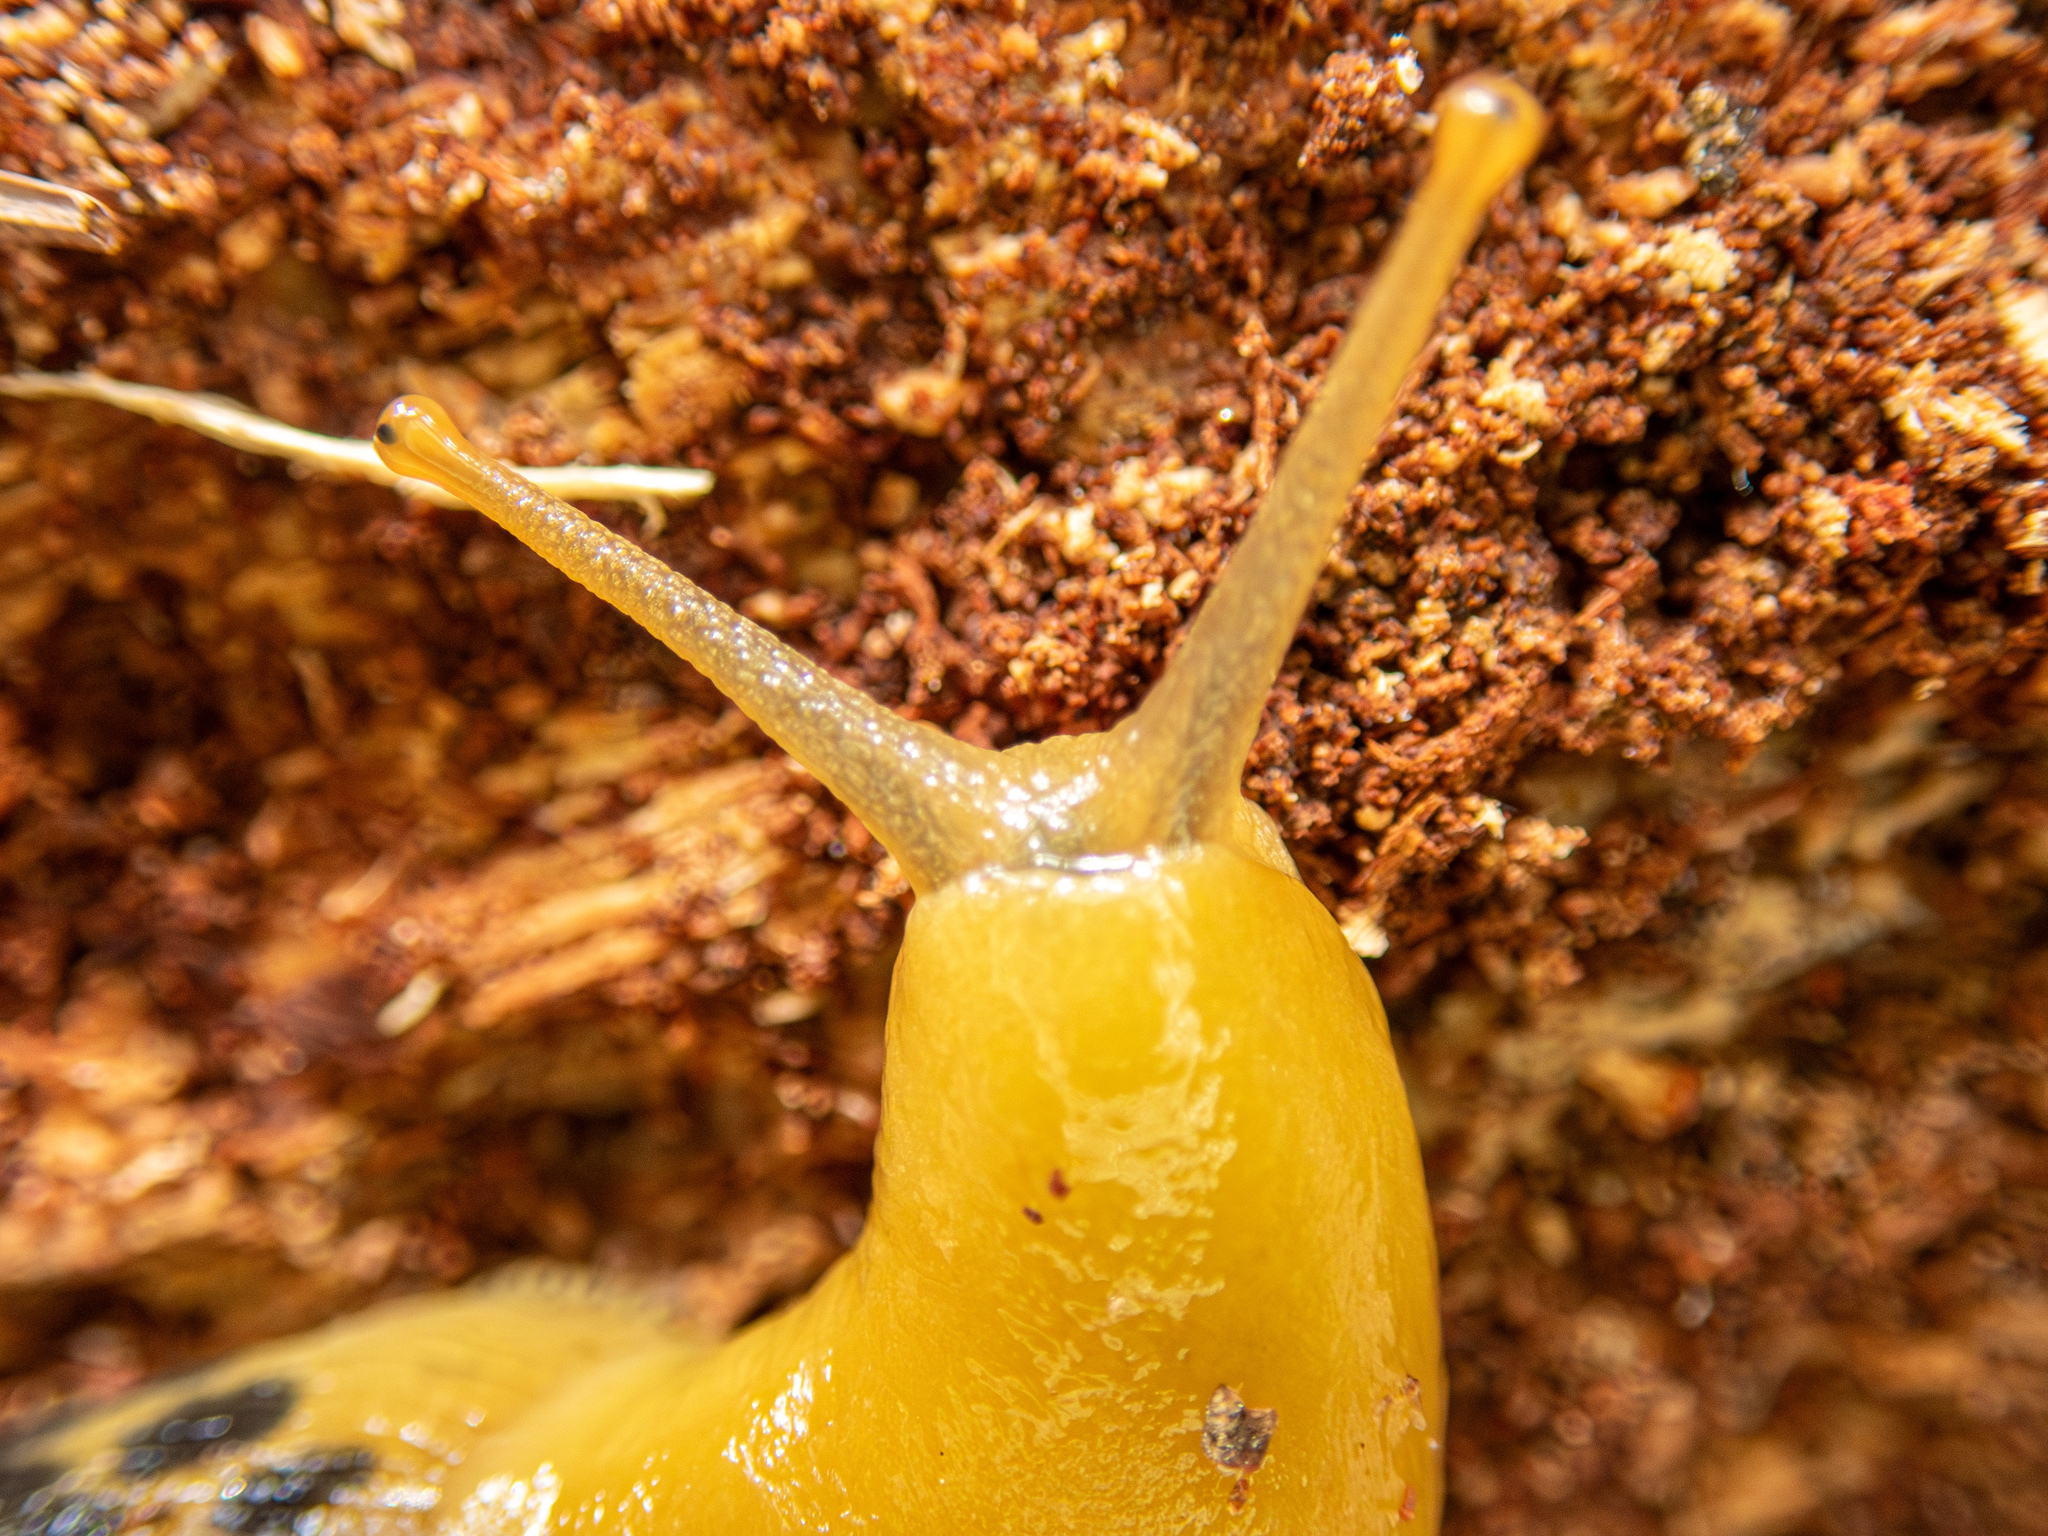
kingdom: Animalia
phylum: Mollusca
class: Gastropoda
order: Stylommatophora
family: Ariolimacidae
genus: Ariolimax
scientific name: Ariolimax buttoni
